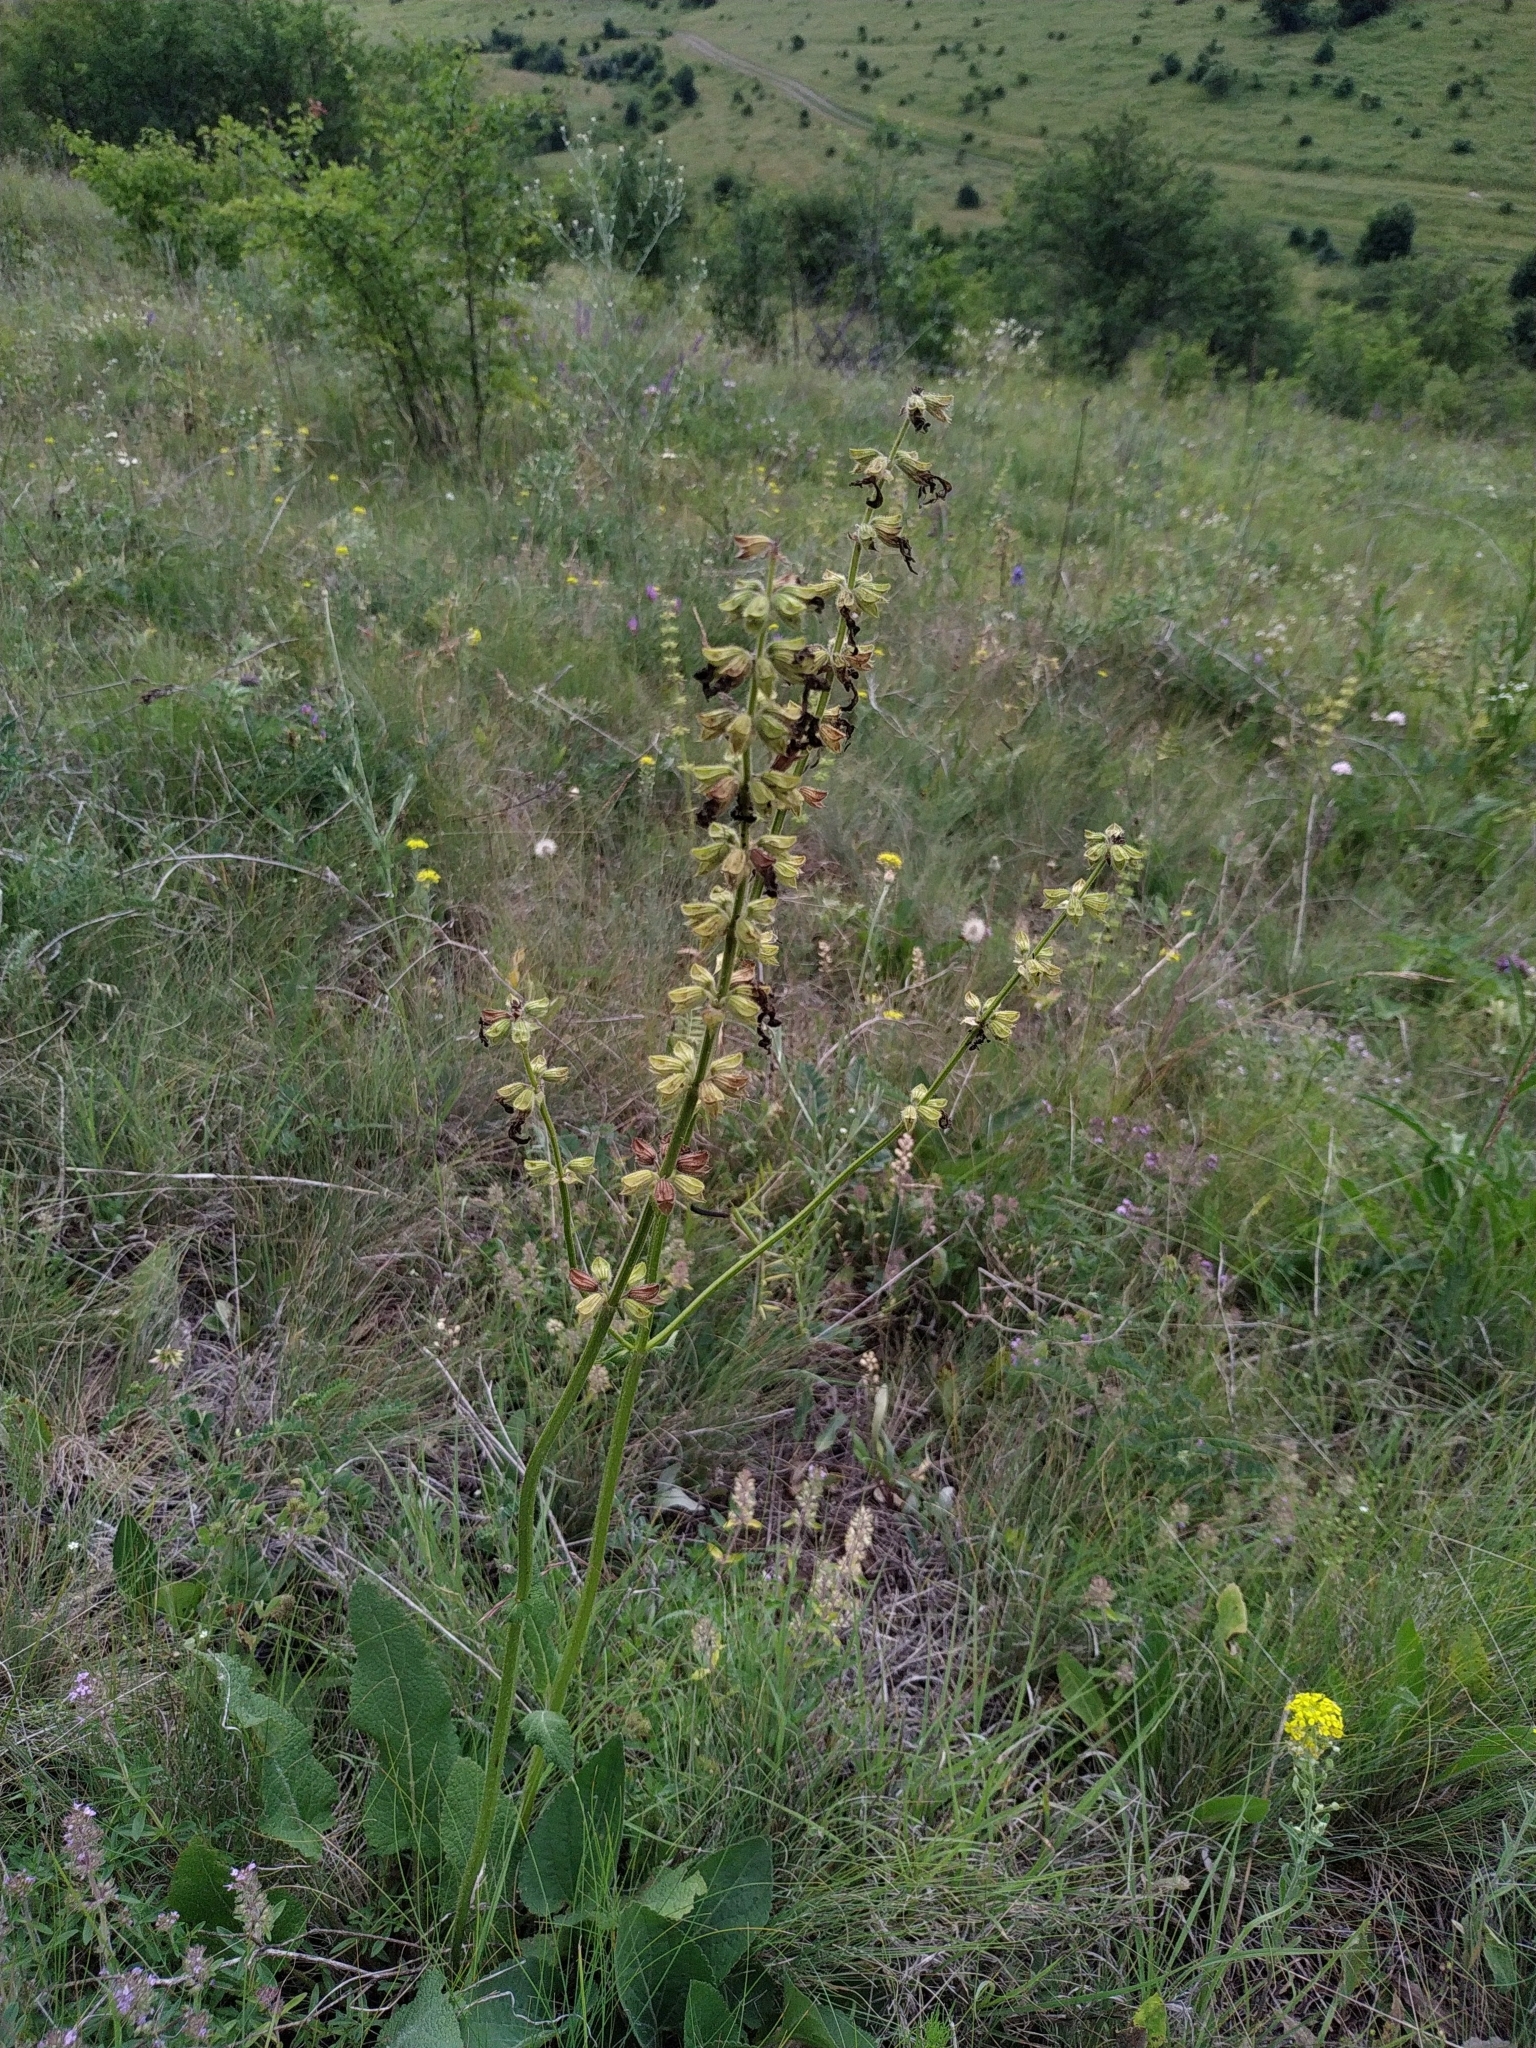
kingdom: Plantae
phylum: Tracheophyta
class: Magnoliopsida
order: Lamiales
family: Lamiaceae
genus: Salvia
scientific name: Salvia pratensis
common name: Meadow sage
